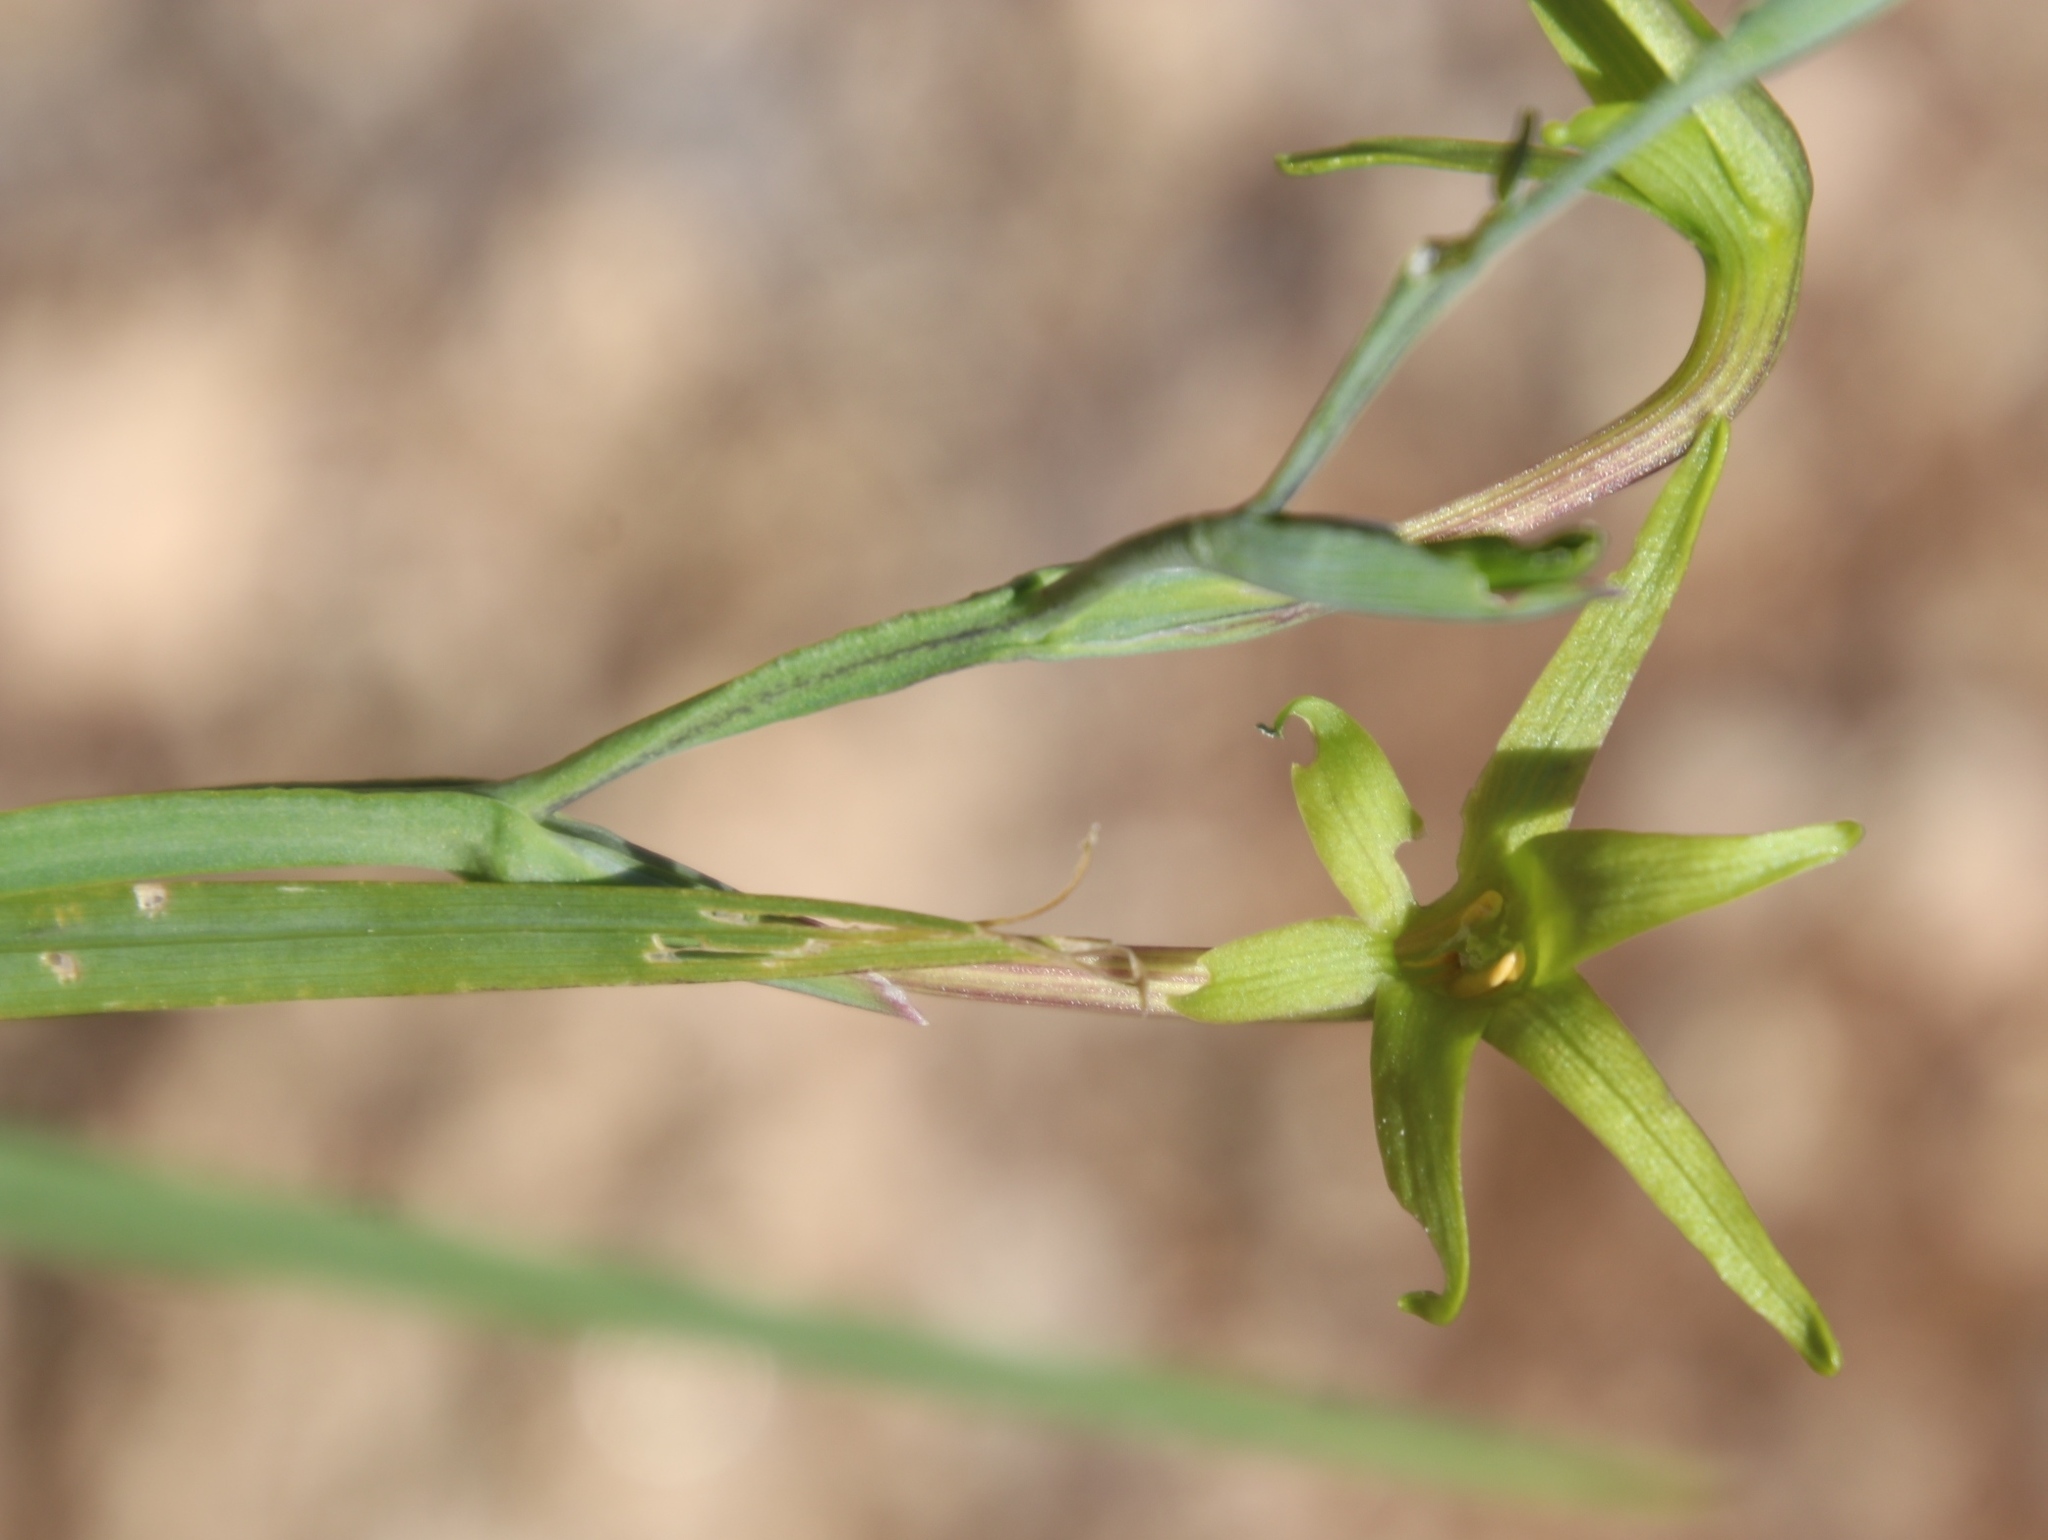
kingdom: Plantae
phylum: Tracheophyta
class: Liliopsida
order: Asparagales
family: Iridaceae
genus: Freesia
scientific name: Freesia viridis
